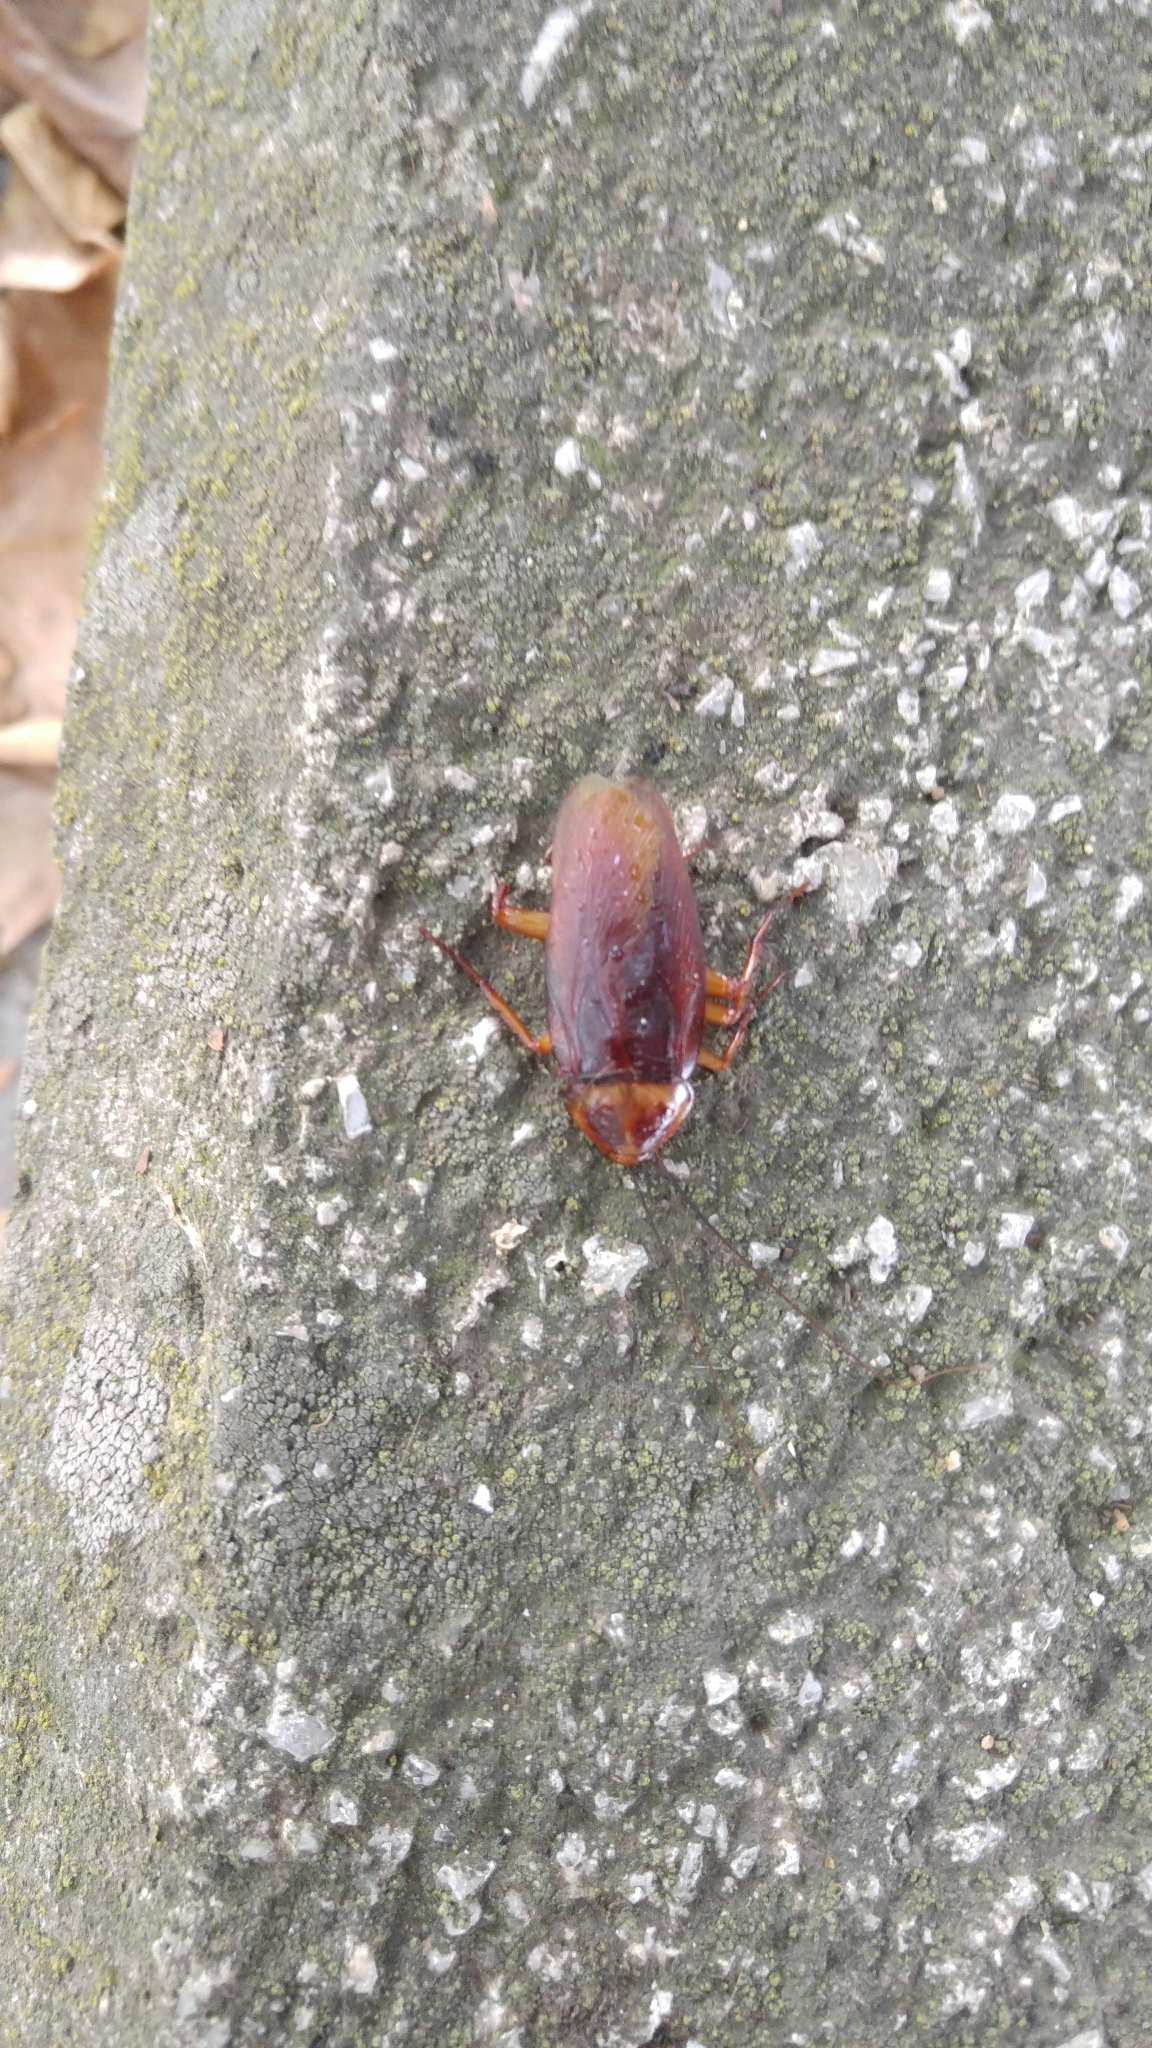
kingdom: Animalia
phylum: Arthropoda
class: Insecta
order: Blattodea
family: Blattidae
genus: Periplaneta
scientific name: Periplaneta americana
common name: American cockroach
